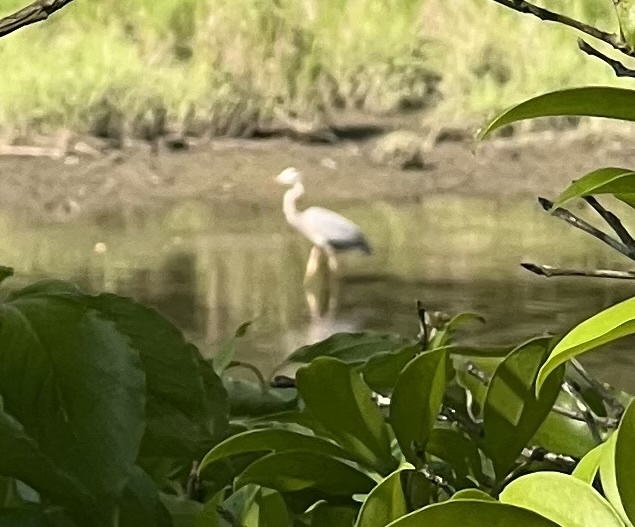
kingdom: Animalia
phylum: Chordata
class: Aves
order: Pelecaniformes
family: Ardeidae
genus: Ardea
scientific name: Ardea herodias
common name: Great blue heron
